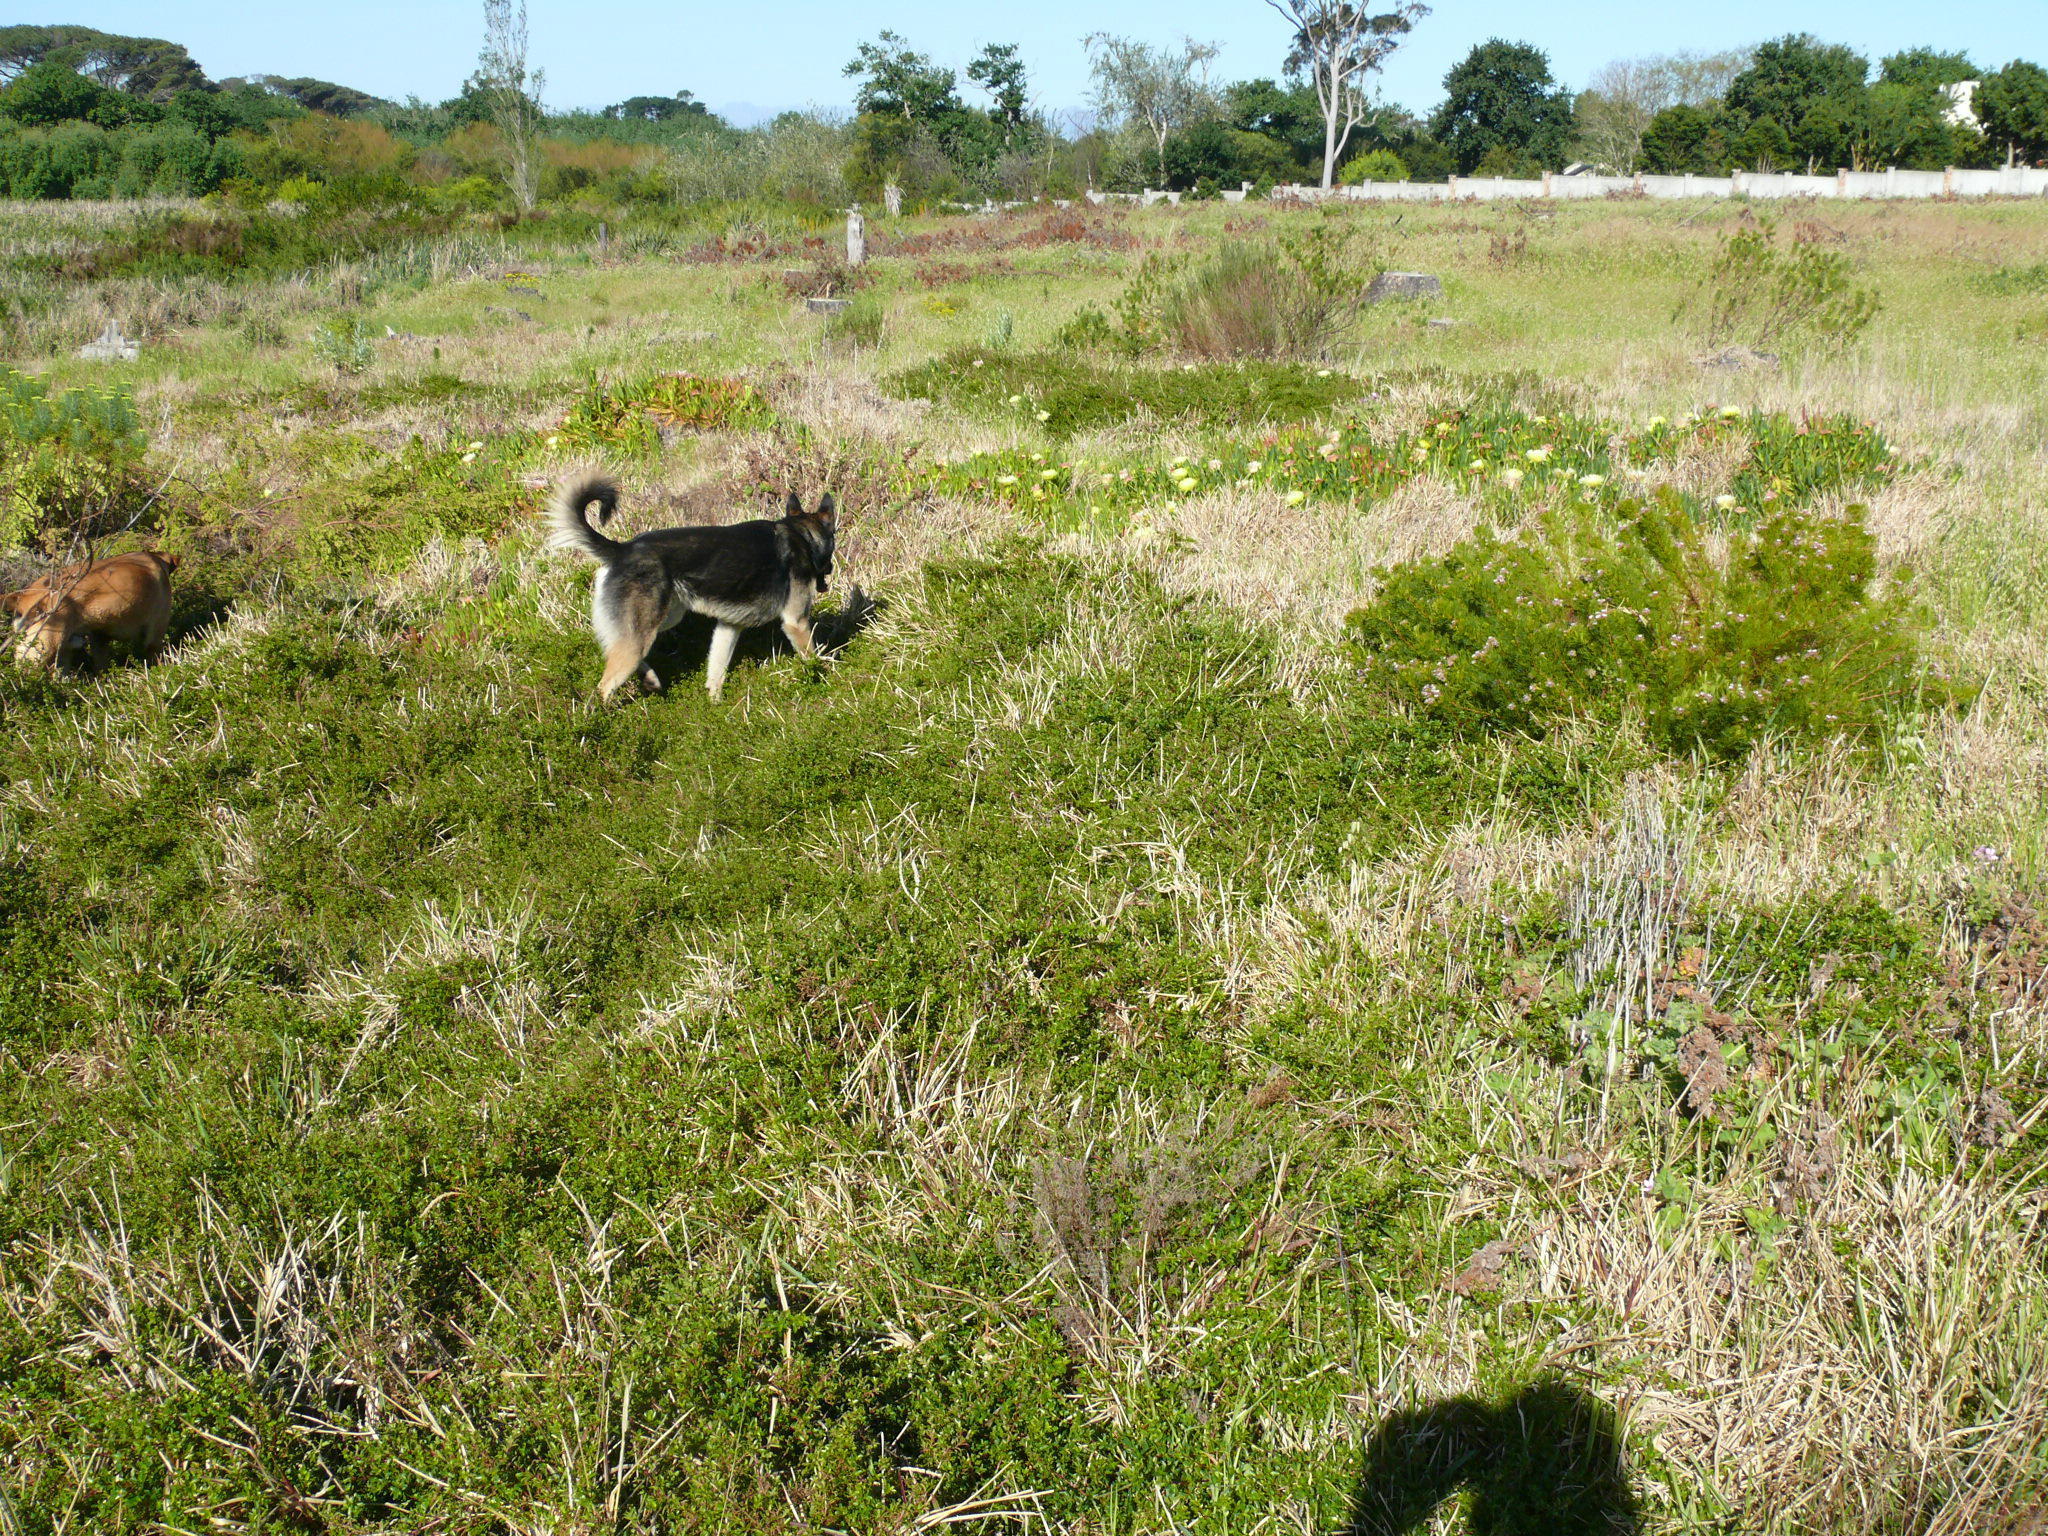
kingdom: Plantae
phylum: Tracheophyta
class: Magnoliopsida
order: Rosales
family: Rosaceae
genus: Cliffortia
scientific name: Cliffortia ferruginea
